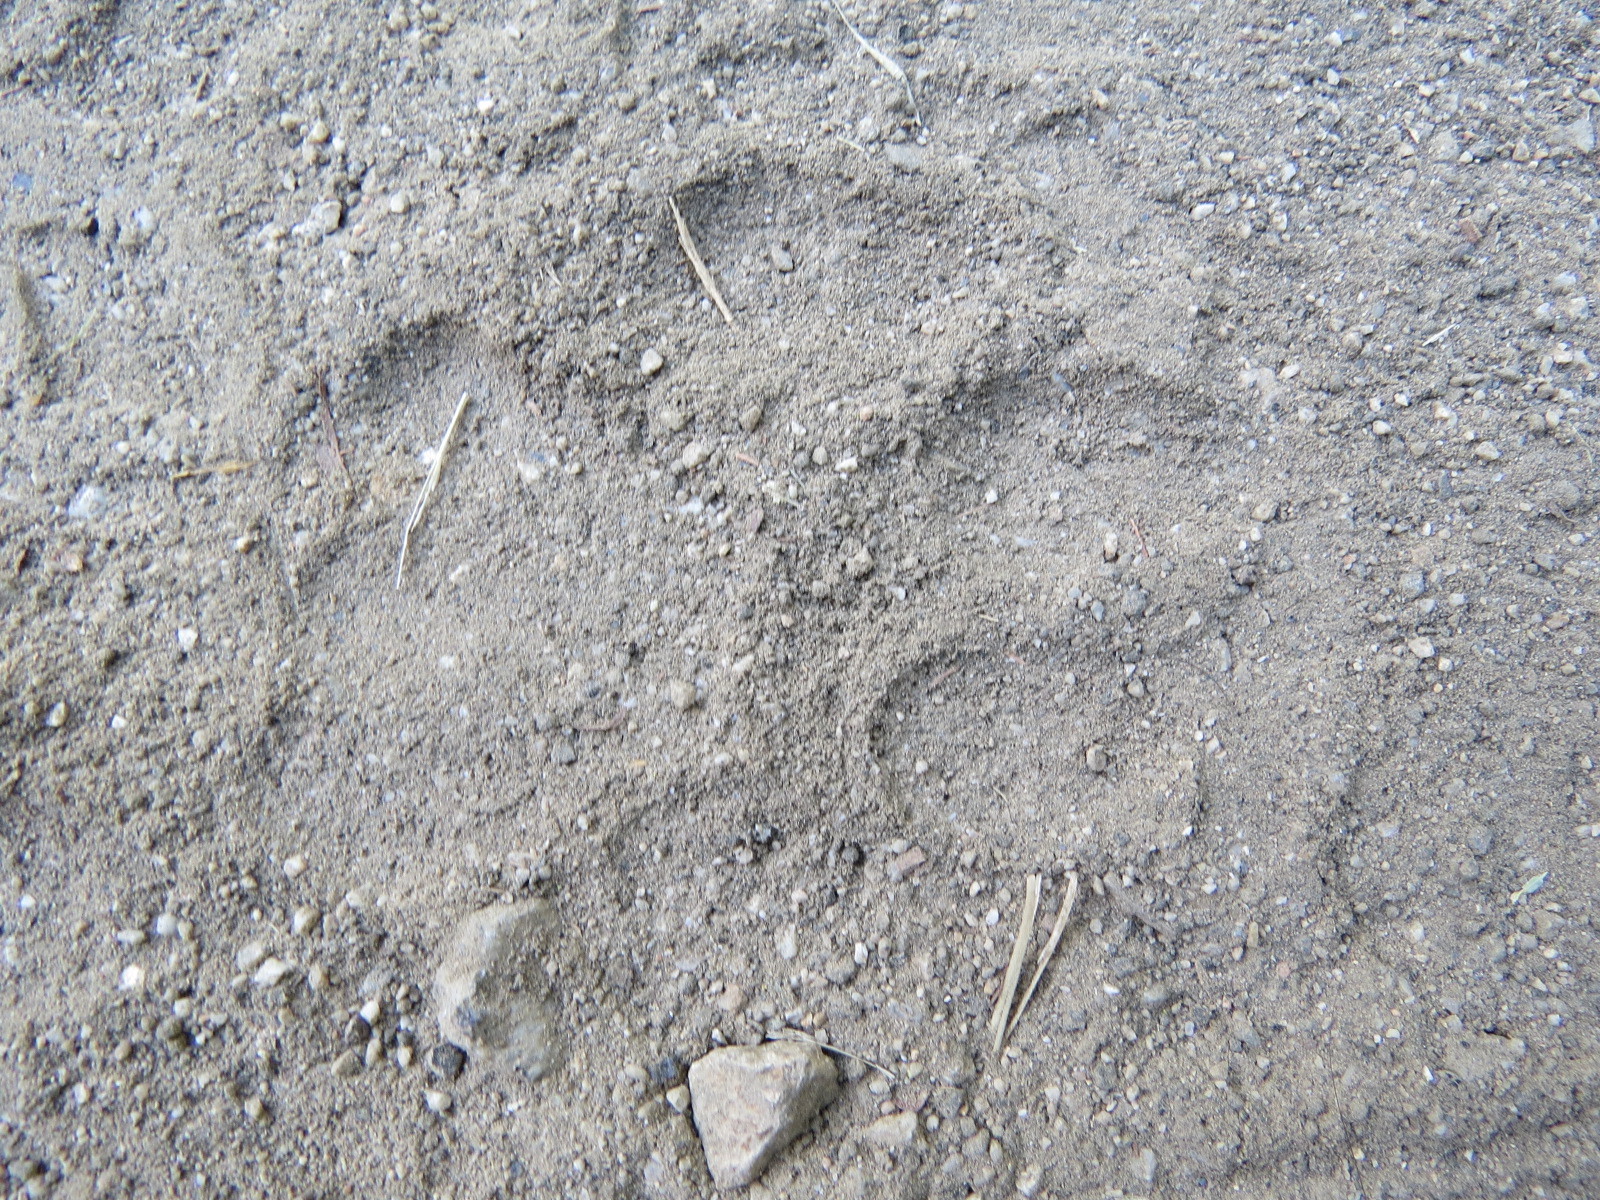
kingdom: Animalia
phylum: Chordata
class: Mammalia
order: Carnivora
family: Felidae
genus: Puma
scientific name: Puma concolor
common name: Puma
